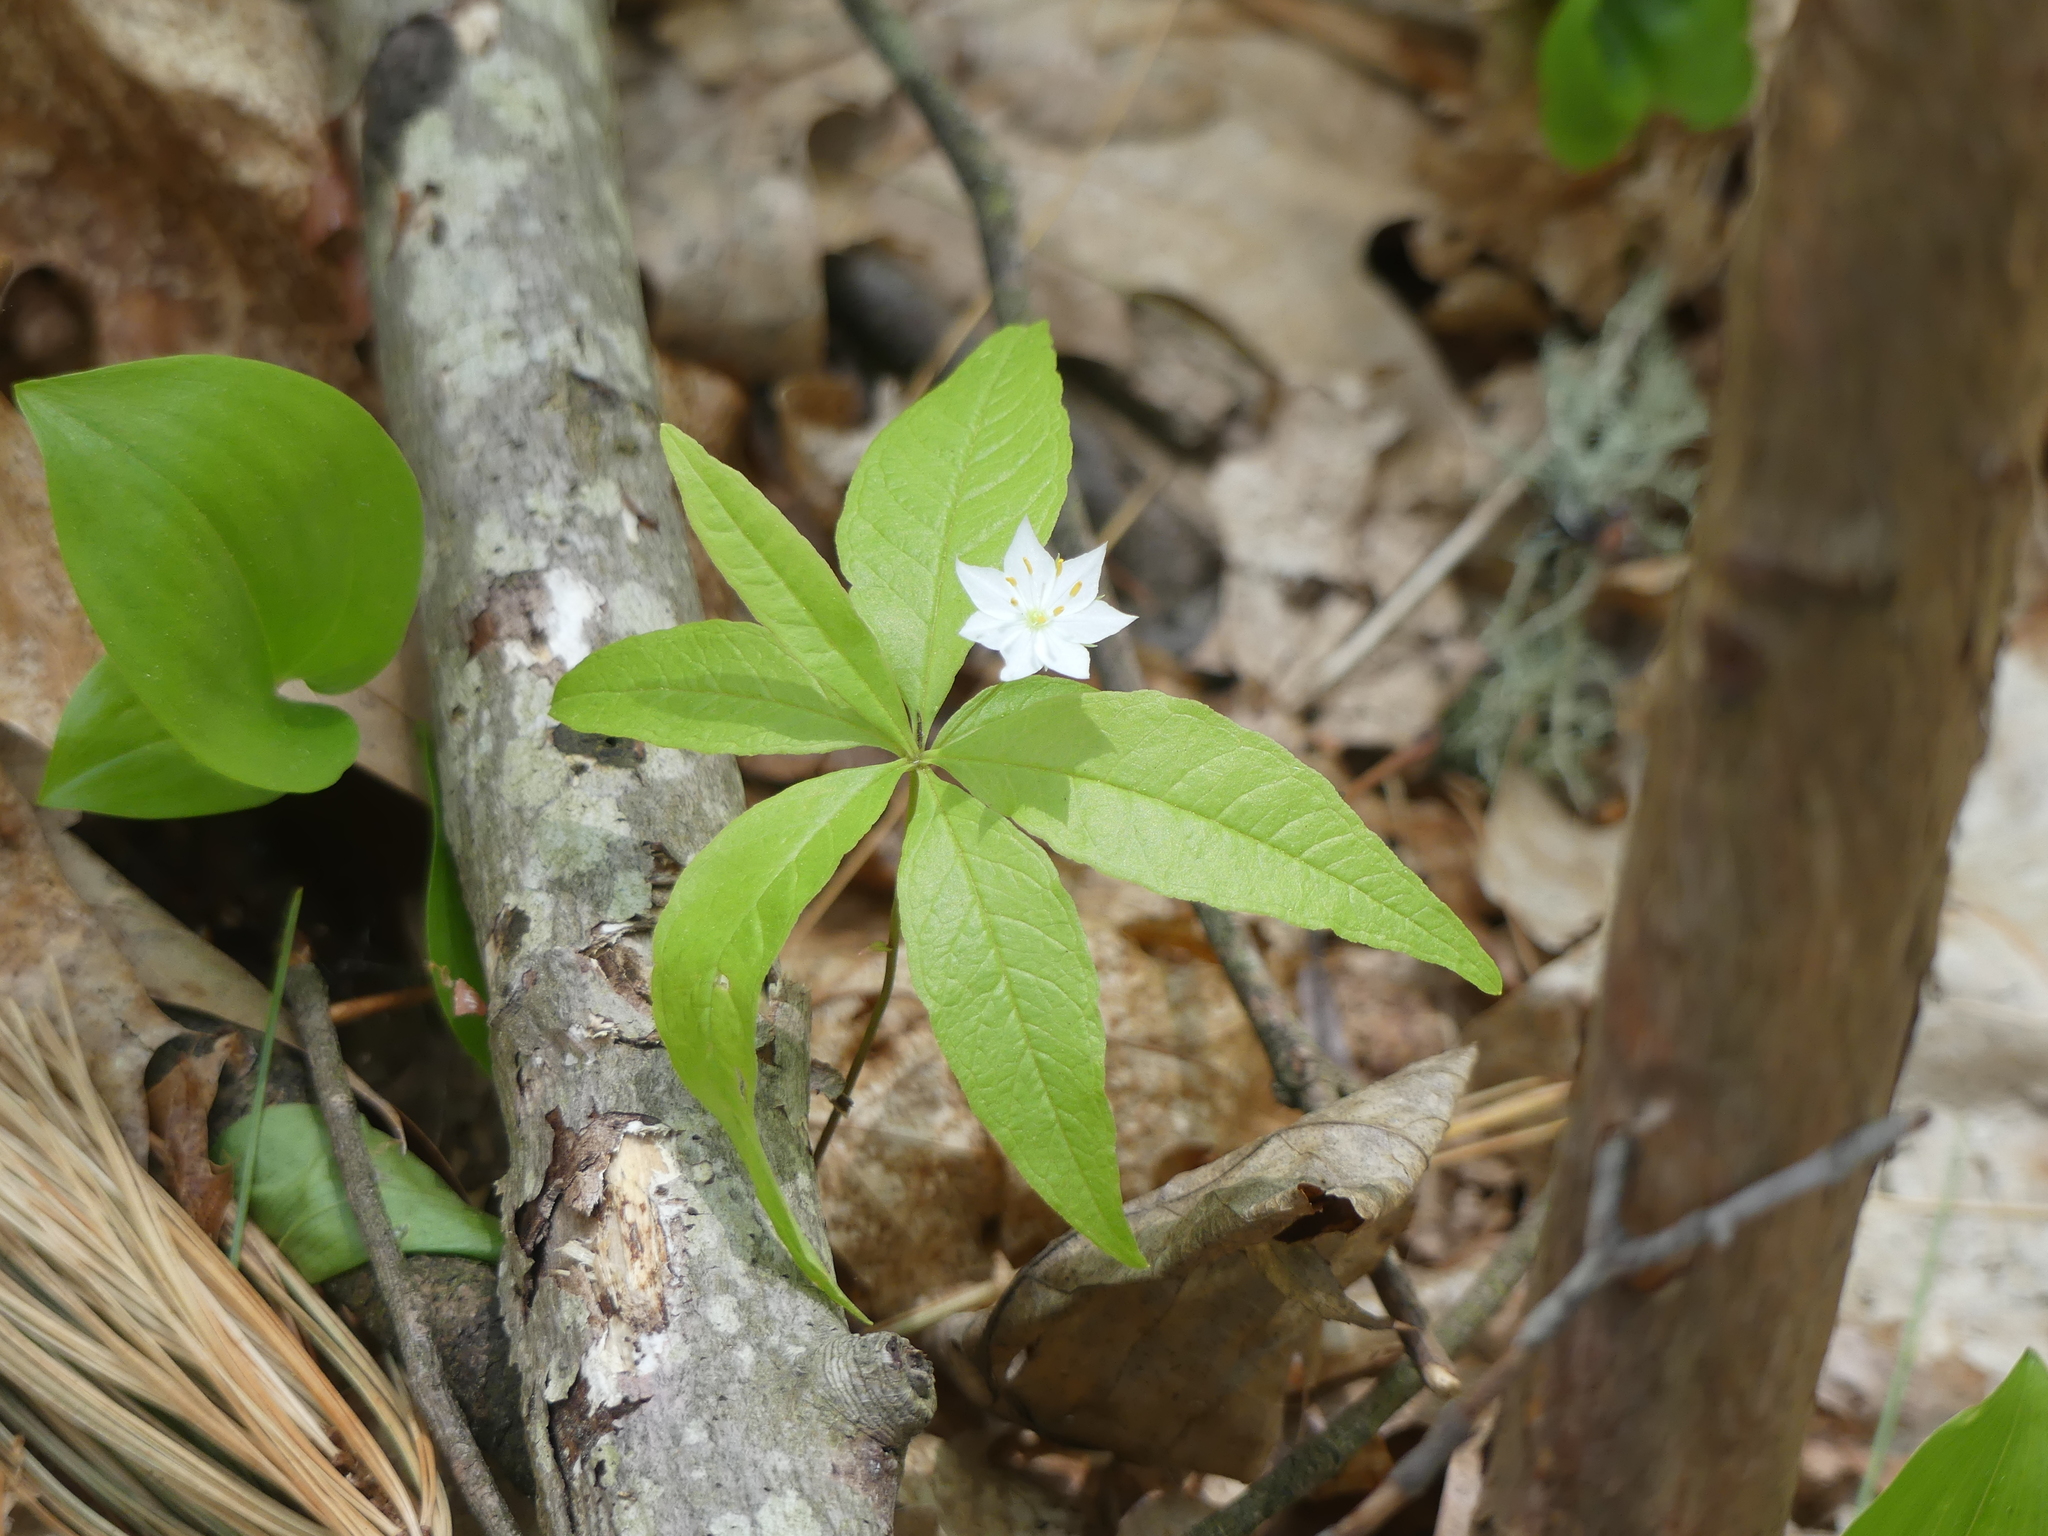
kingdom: Plantae
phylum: Tracheophyta
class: Magnoliopsida
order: Ericales
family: Primulaceae
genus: Lysimachia
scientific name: Lysimachia borealis
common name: American starflower
